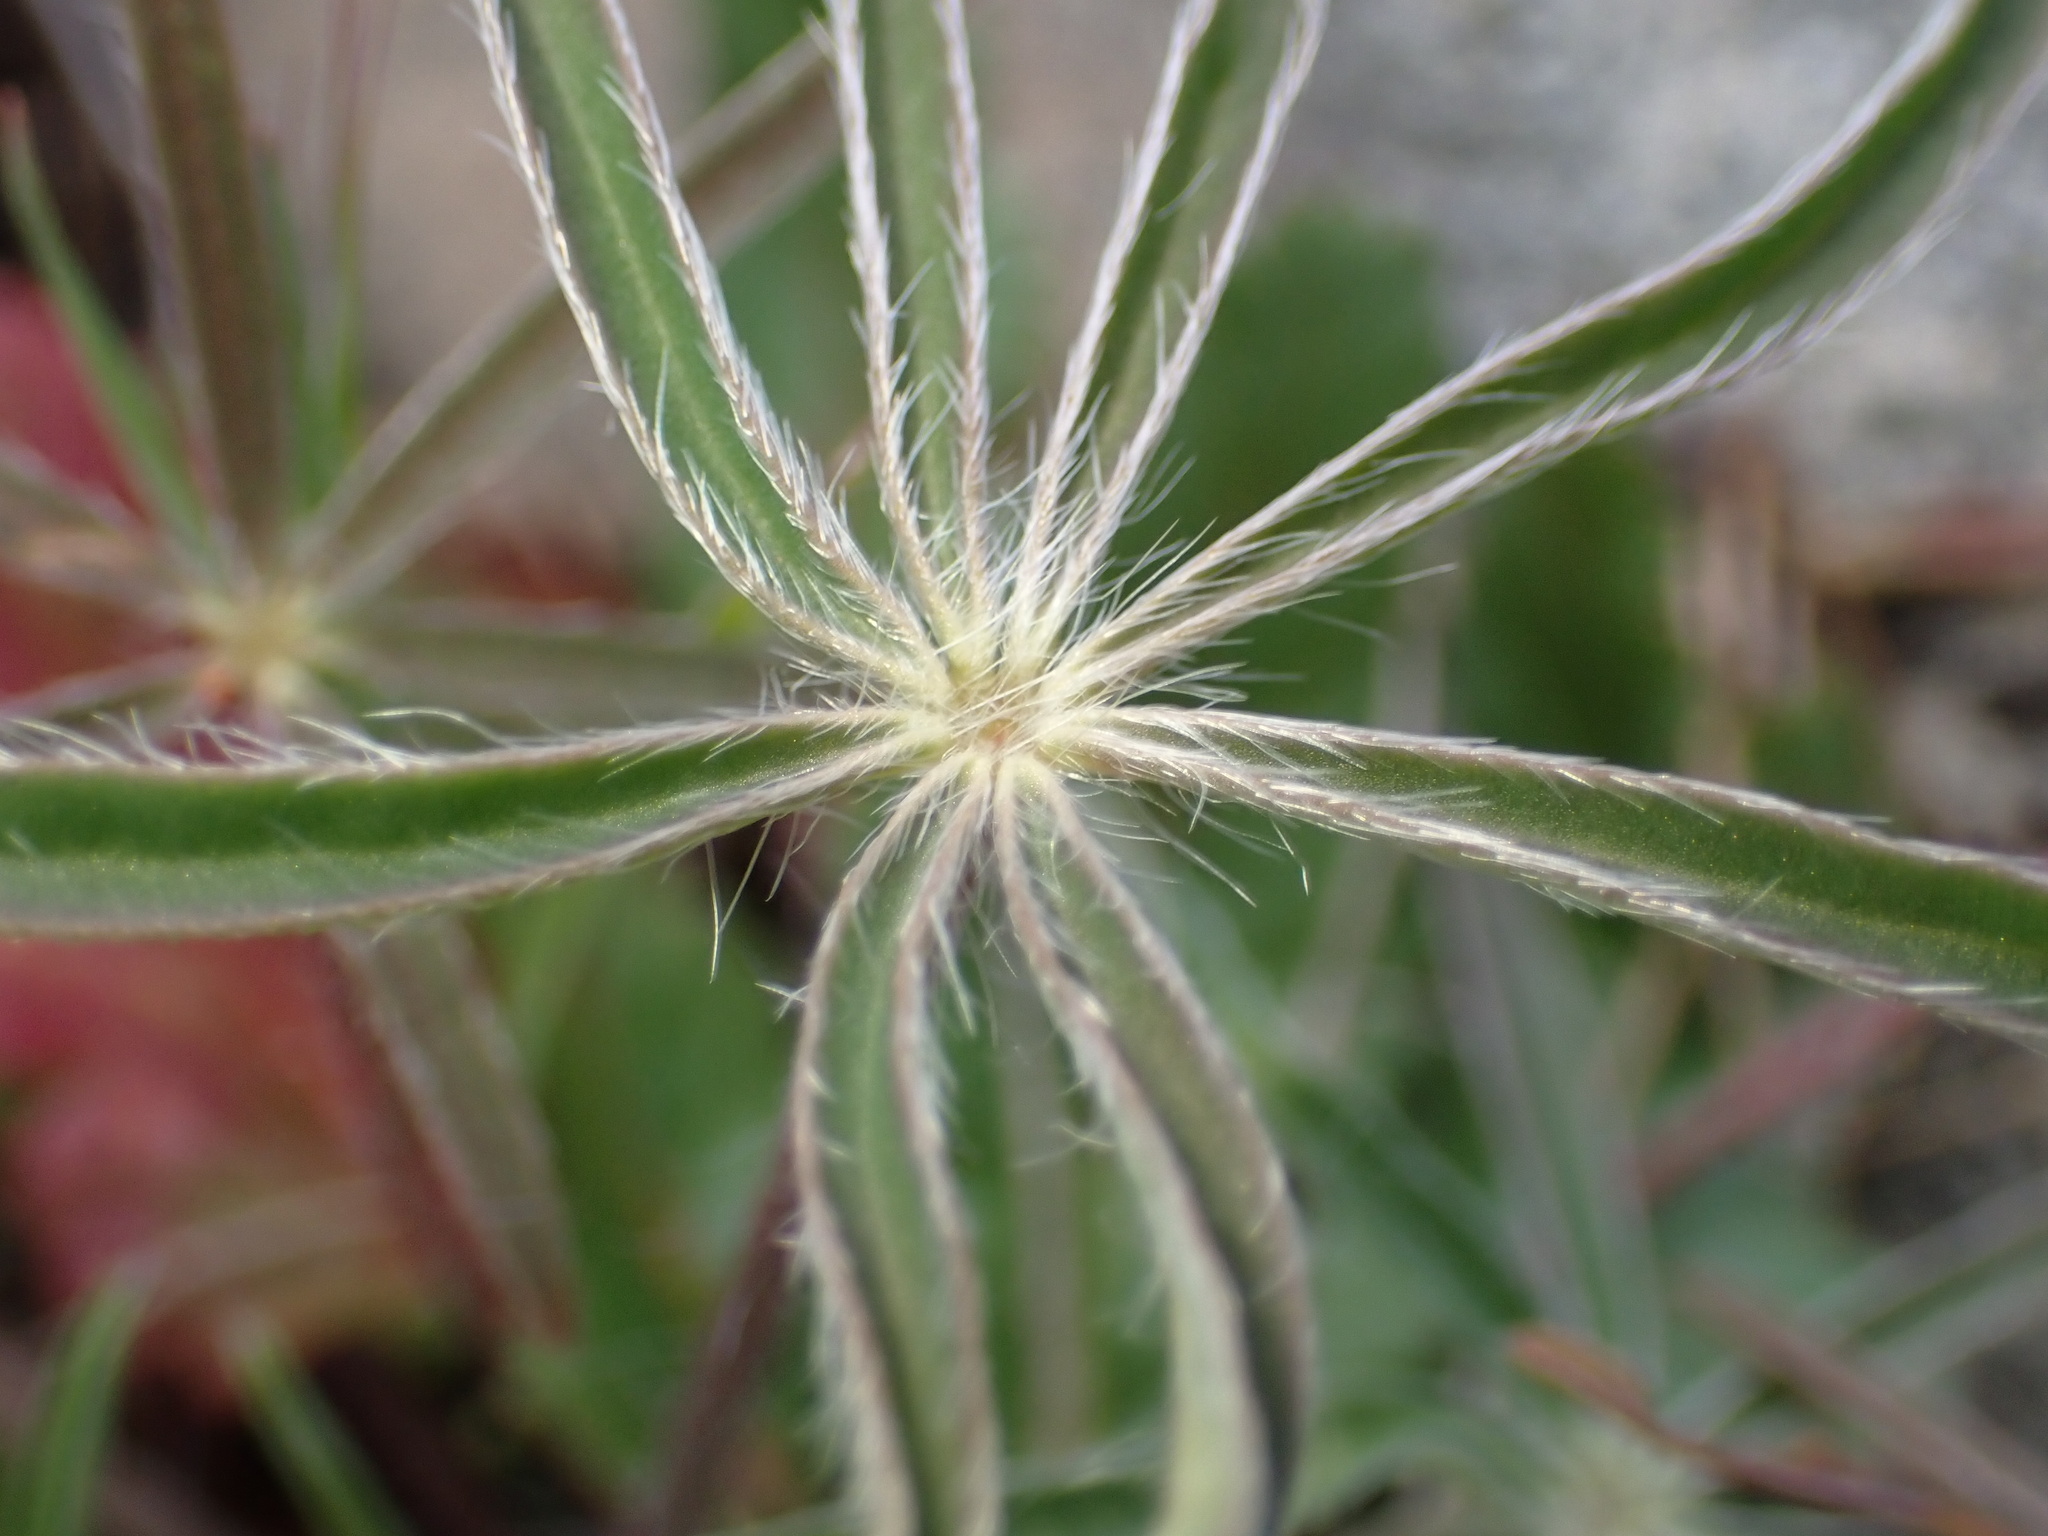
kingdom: Plantae
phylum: Tracheophyta
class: Magnoliopsida
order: Fabales
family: Fabaceae
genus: Lupinus
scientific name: Lupinus benthamii
